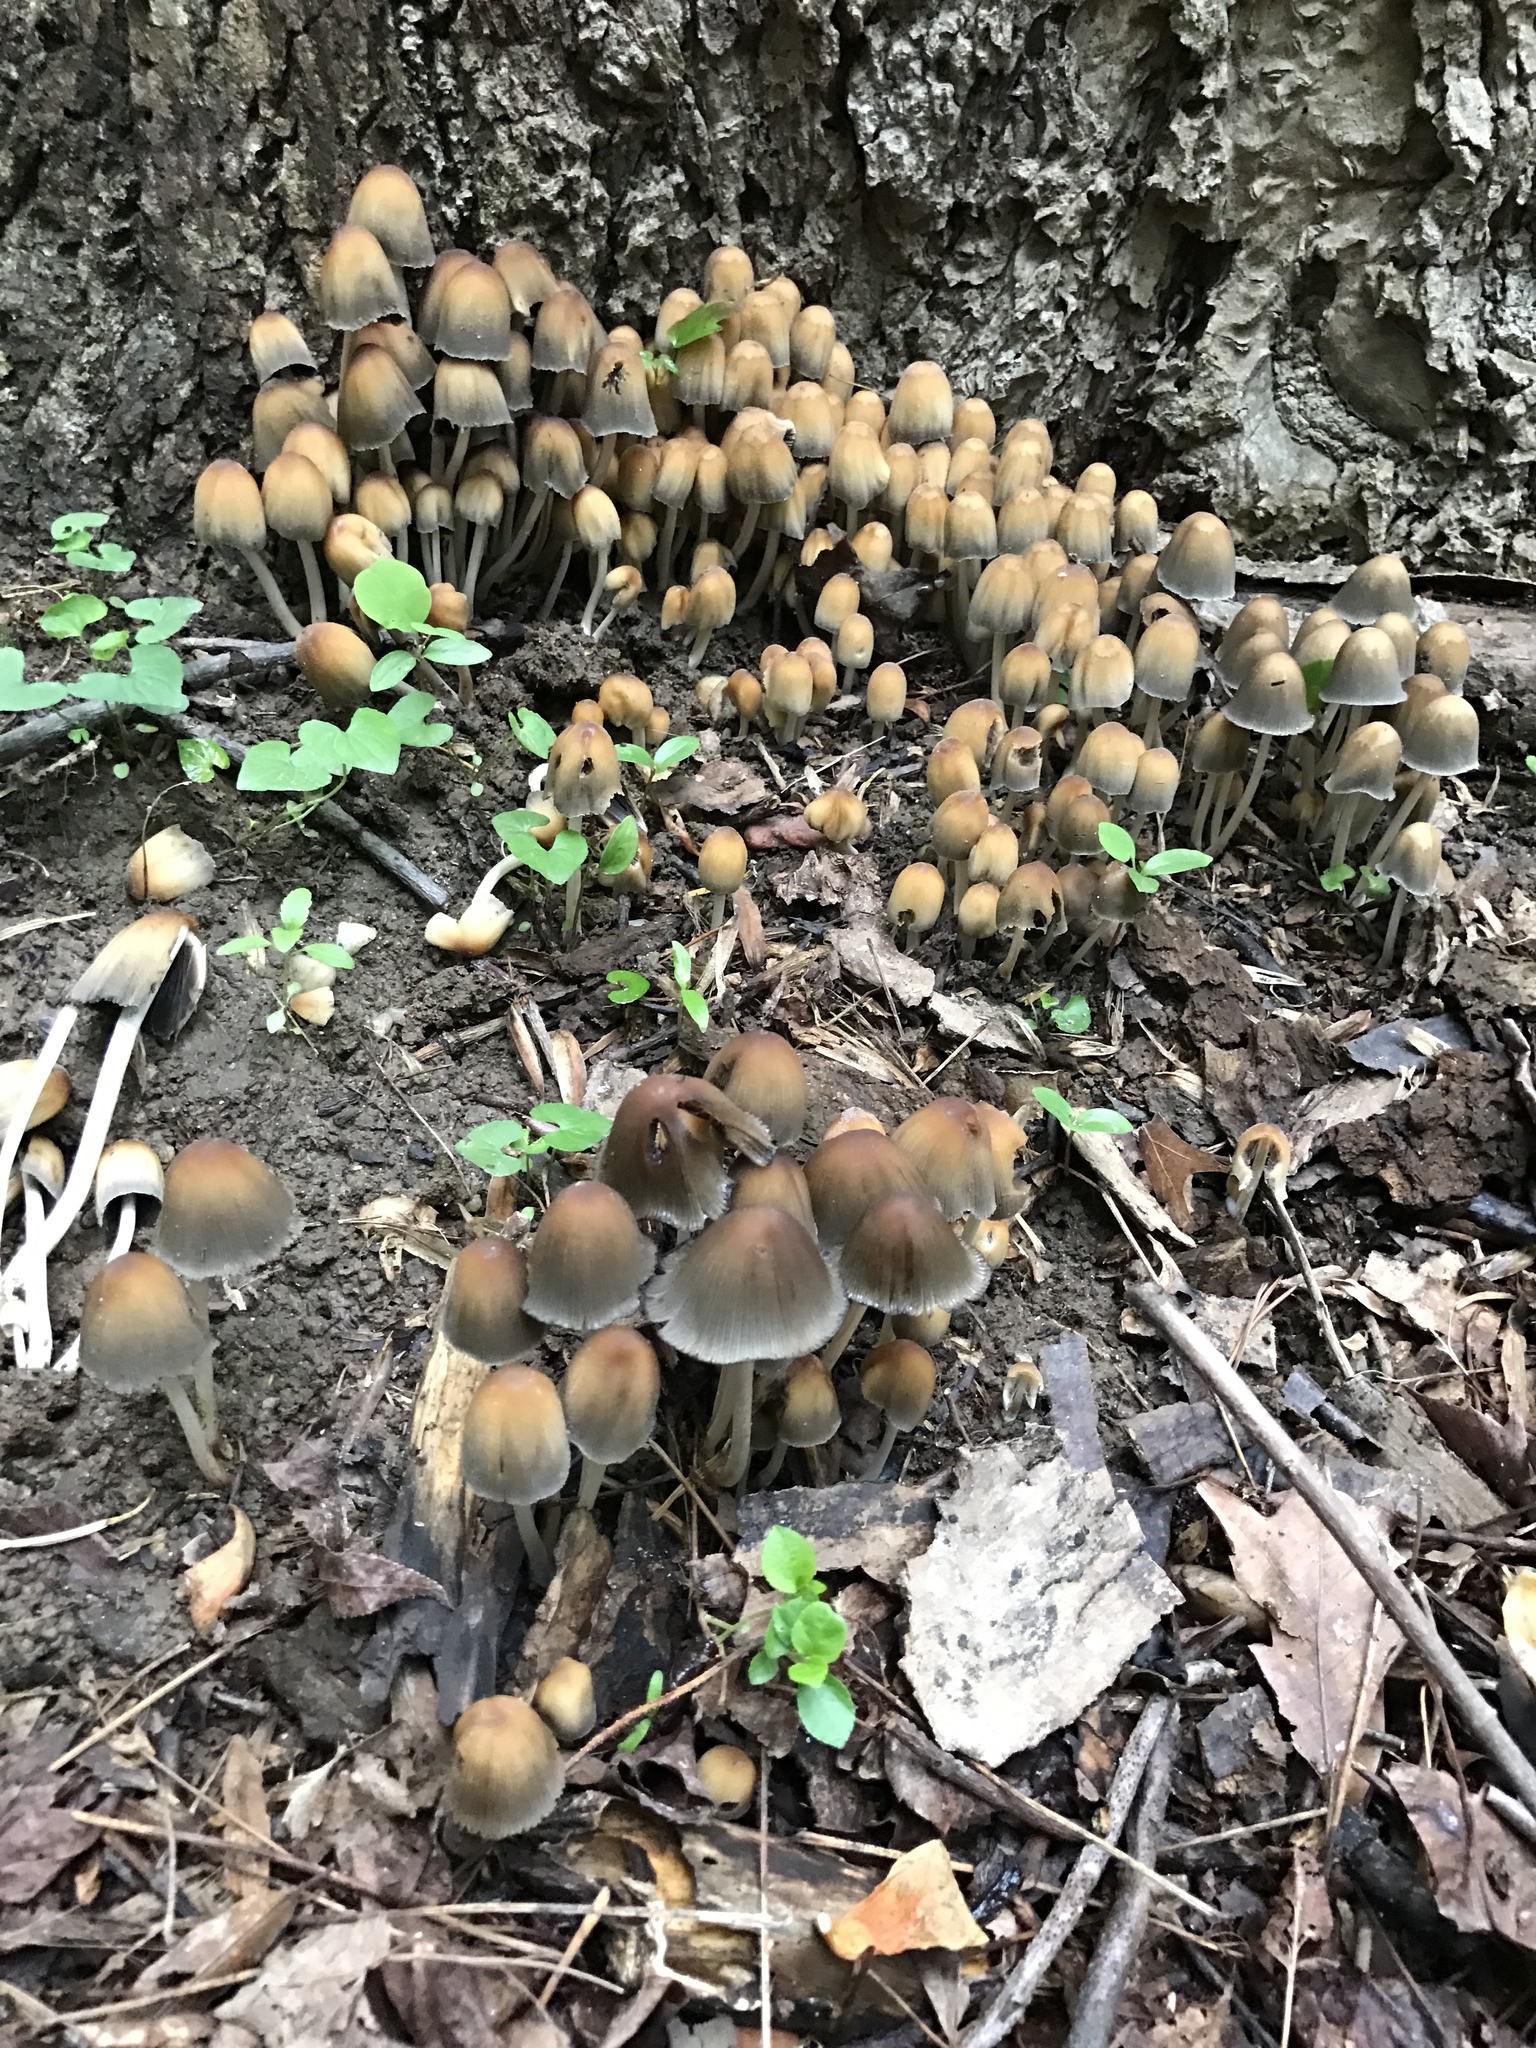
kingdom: Fungi
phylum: Basidiomycota
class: Agaricomycetes
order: Agaricales
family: Psathyrellaceae
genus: Coprinellus
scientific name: Coprinellus micaceus
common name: Glistening ink-cap
